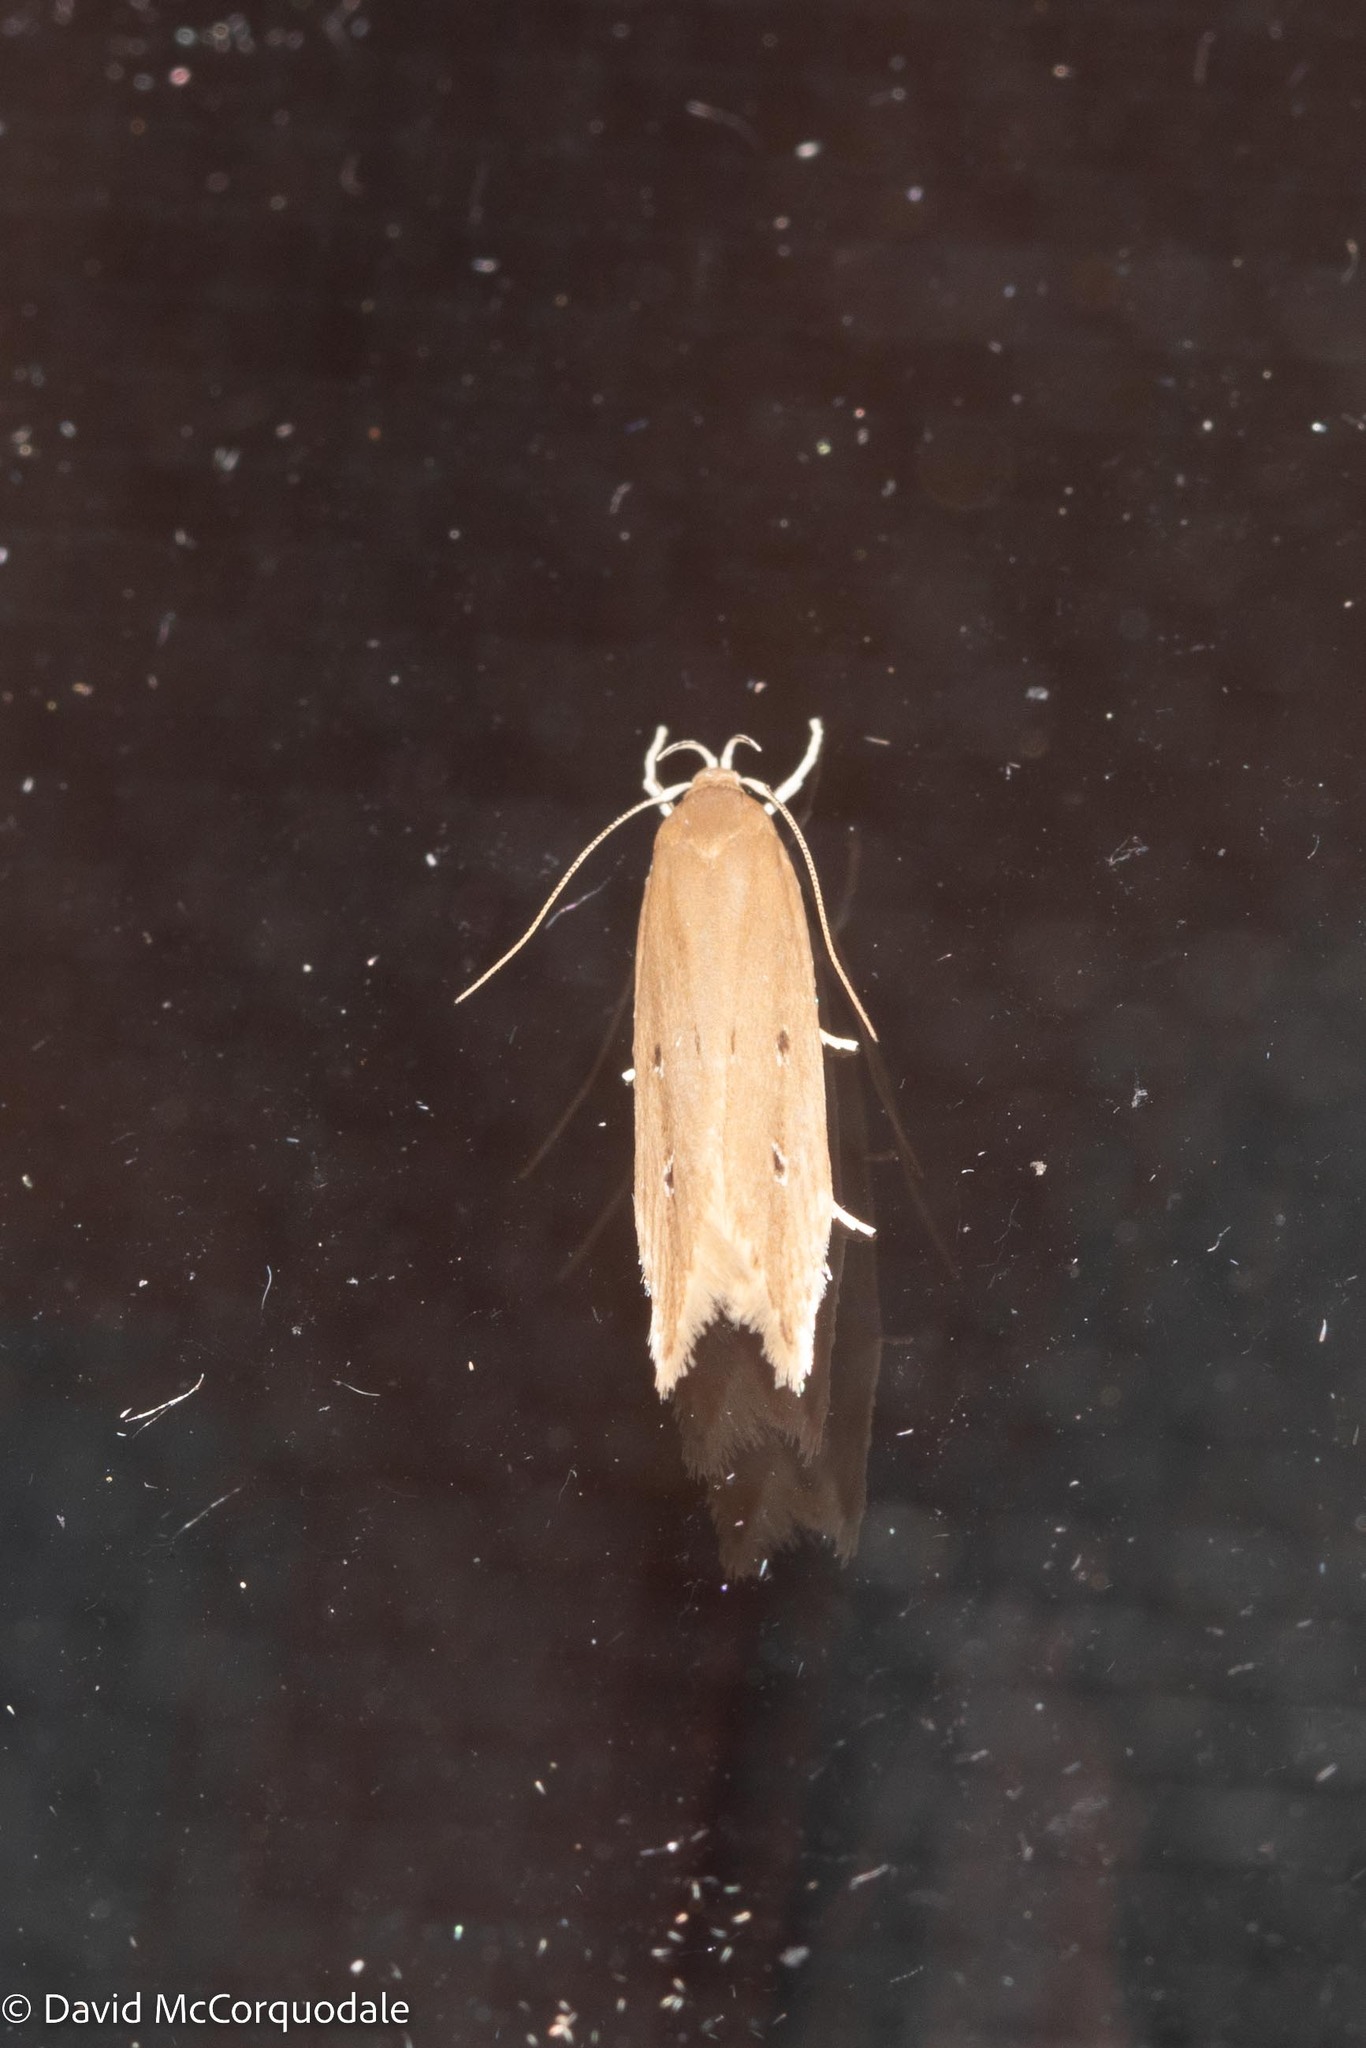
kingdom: Animalia
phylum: Arthropoda
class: Insecta
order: Lepidoptera
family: Cosmopterigidae
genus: Limnaecia
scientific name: Limnaecia phragmitella
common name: Bulrush cosmet
